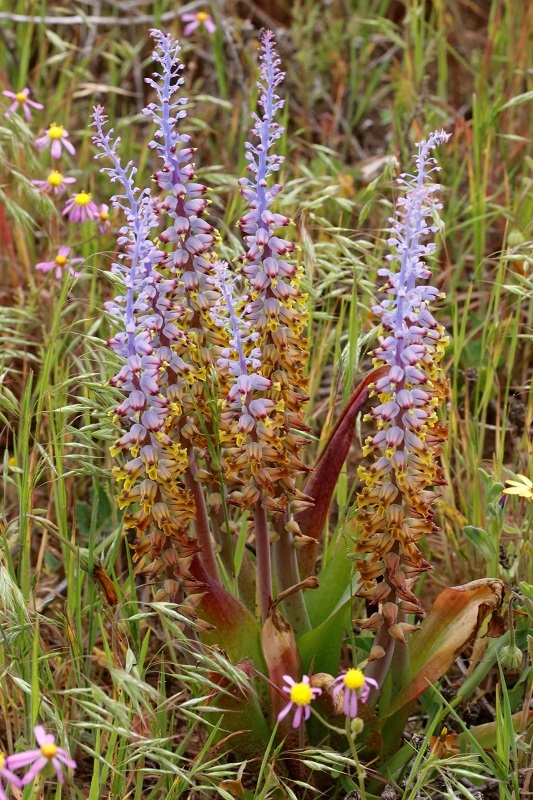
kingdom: Plantae
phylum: Tracheophyta
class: Liliopsida
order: Asparagales
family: Asparagaceae
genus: Lachenalia
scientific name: Lachenalia mutabilis
